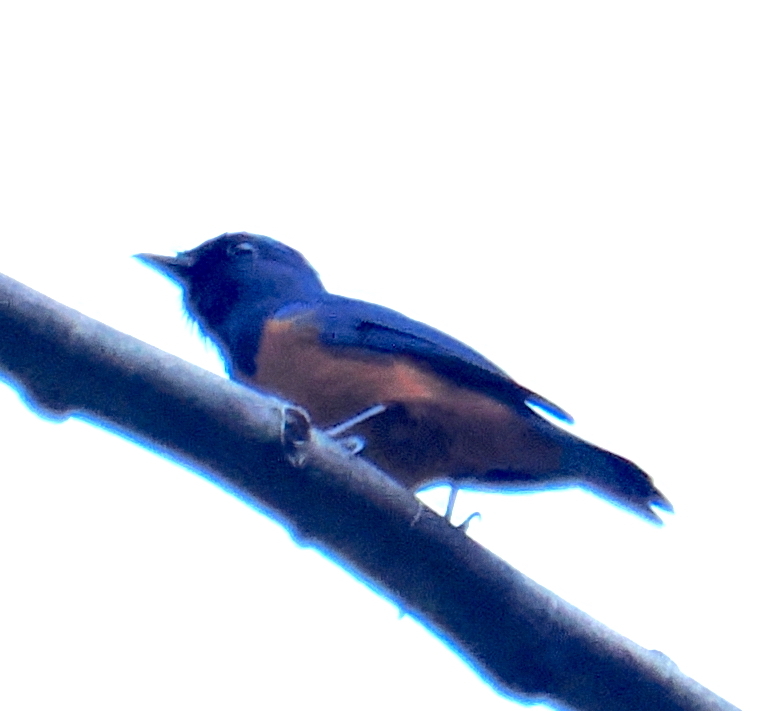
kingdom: Animalia
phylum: Chordata
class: Aves
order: Passeriformes
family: Muscicapidae
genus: Cyornis
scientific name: Cyornis hyacinthinus
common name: Timor blue flycatcher
